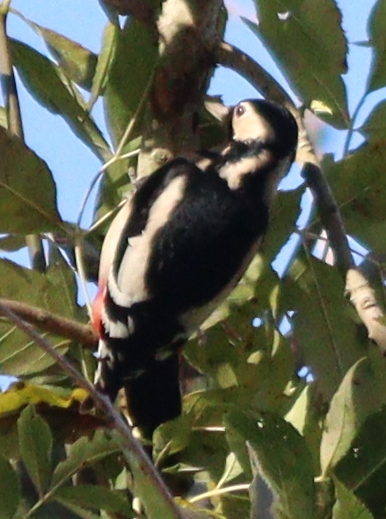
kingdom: Animalia
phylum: Chordata
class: Aves
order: Piciformes
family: Picidae
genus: Dendrocopos
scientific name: Dendrocopos major
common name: Great spotted woodpecker
